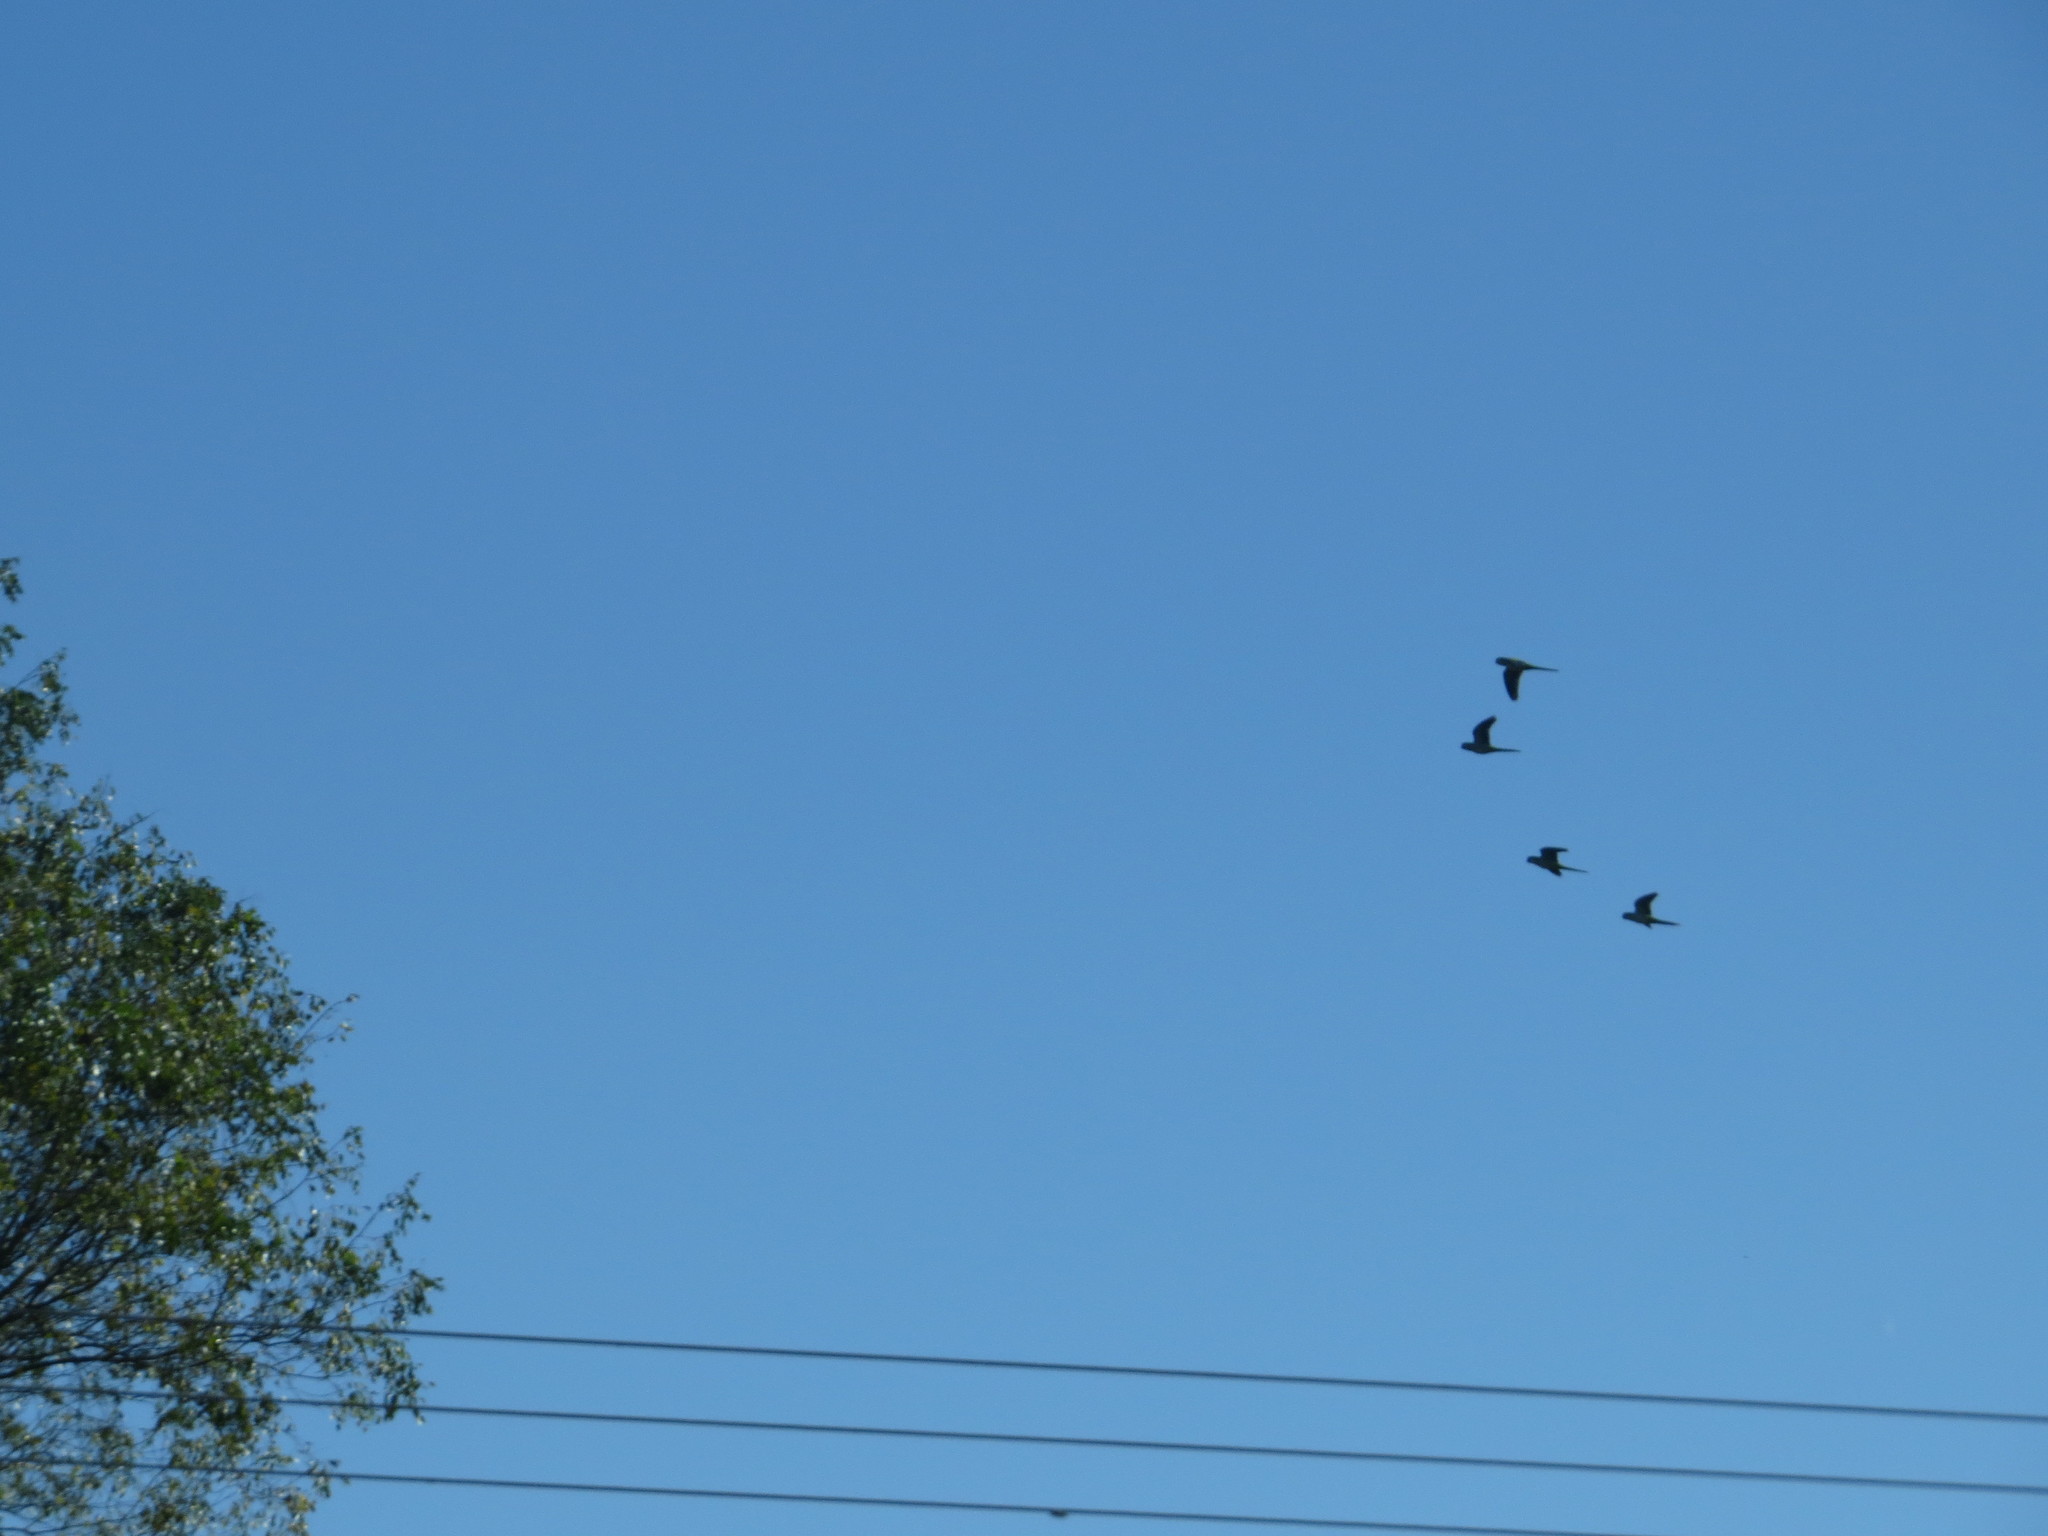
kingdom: Animalia
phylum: Chordata
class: Aves
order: Psittaciformes
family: Psittacidae
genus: Nandayus
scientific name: Nandayus nenday
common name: Nanday parakeet
